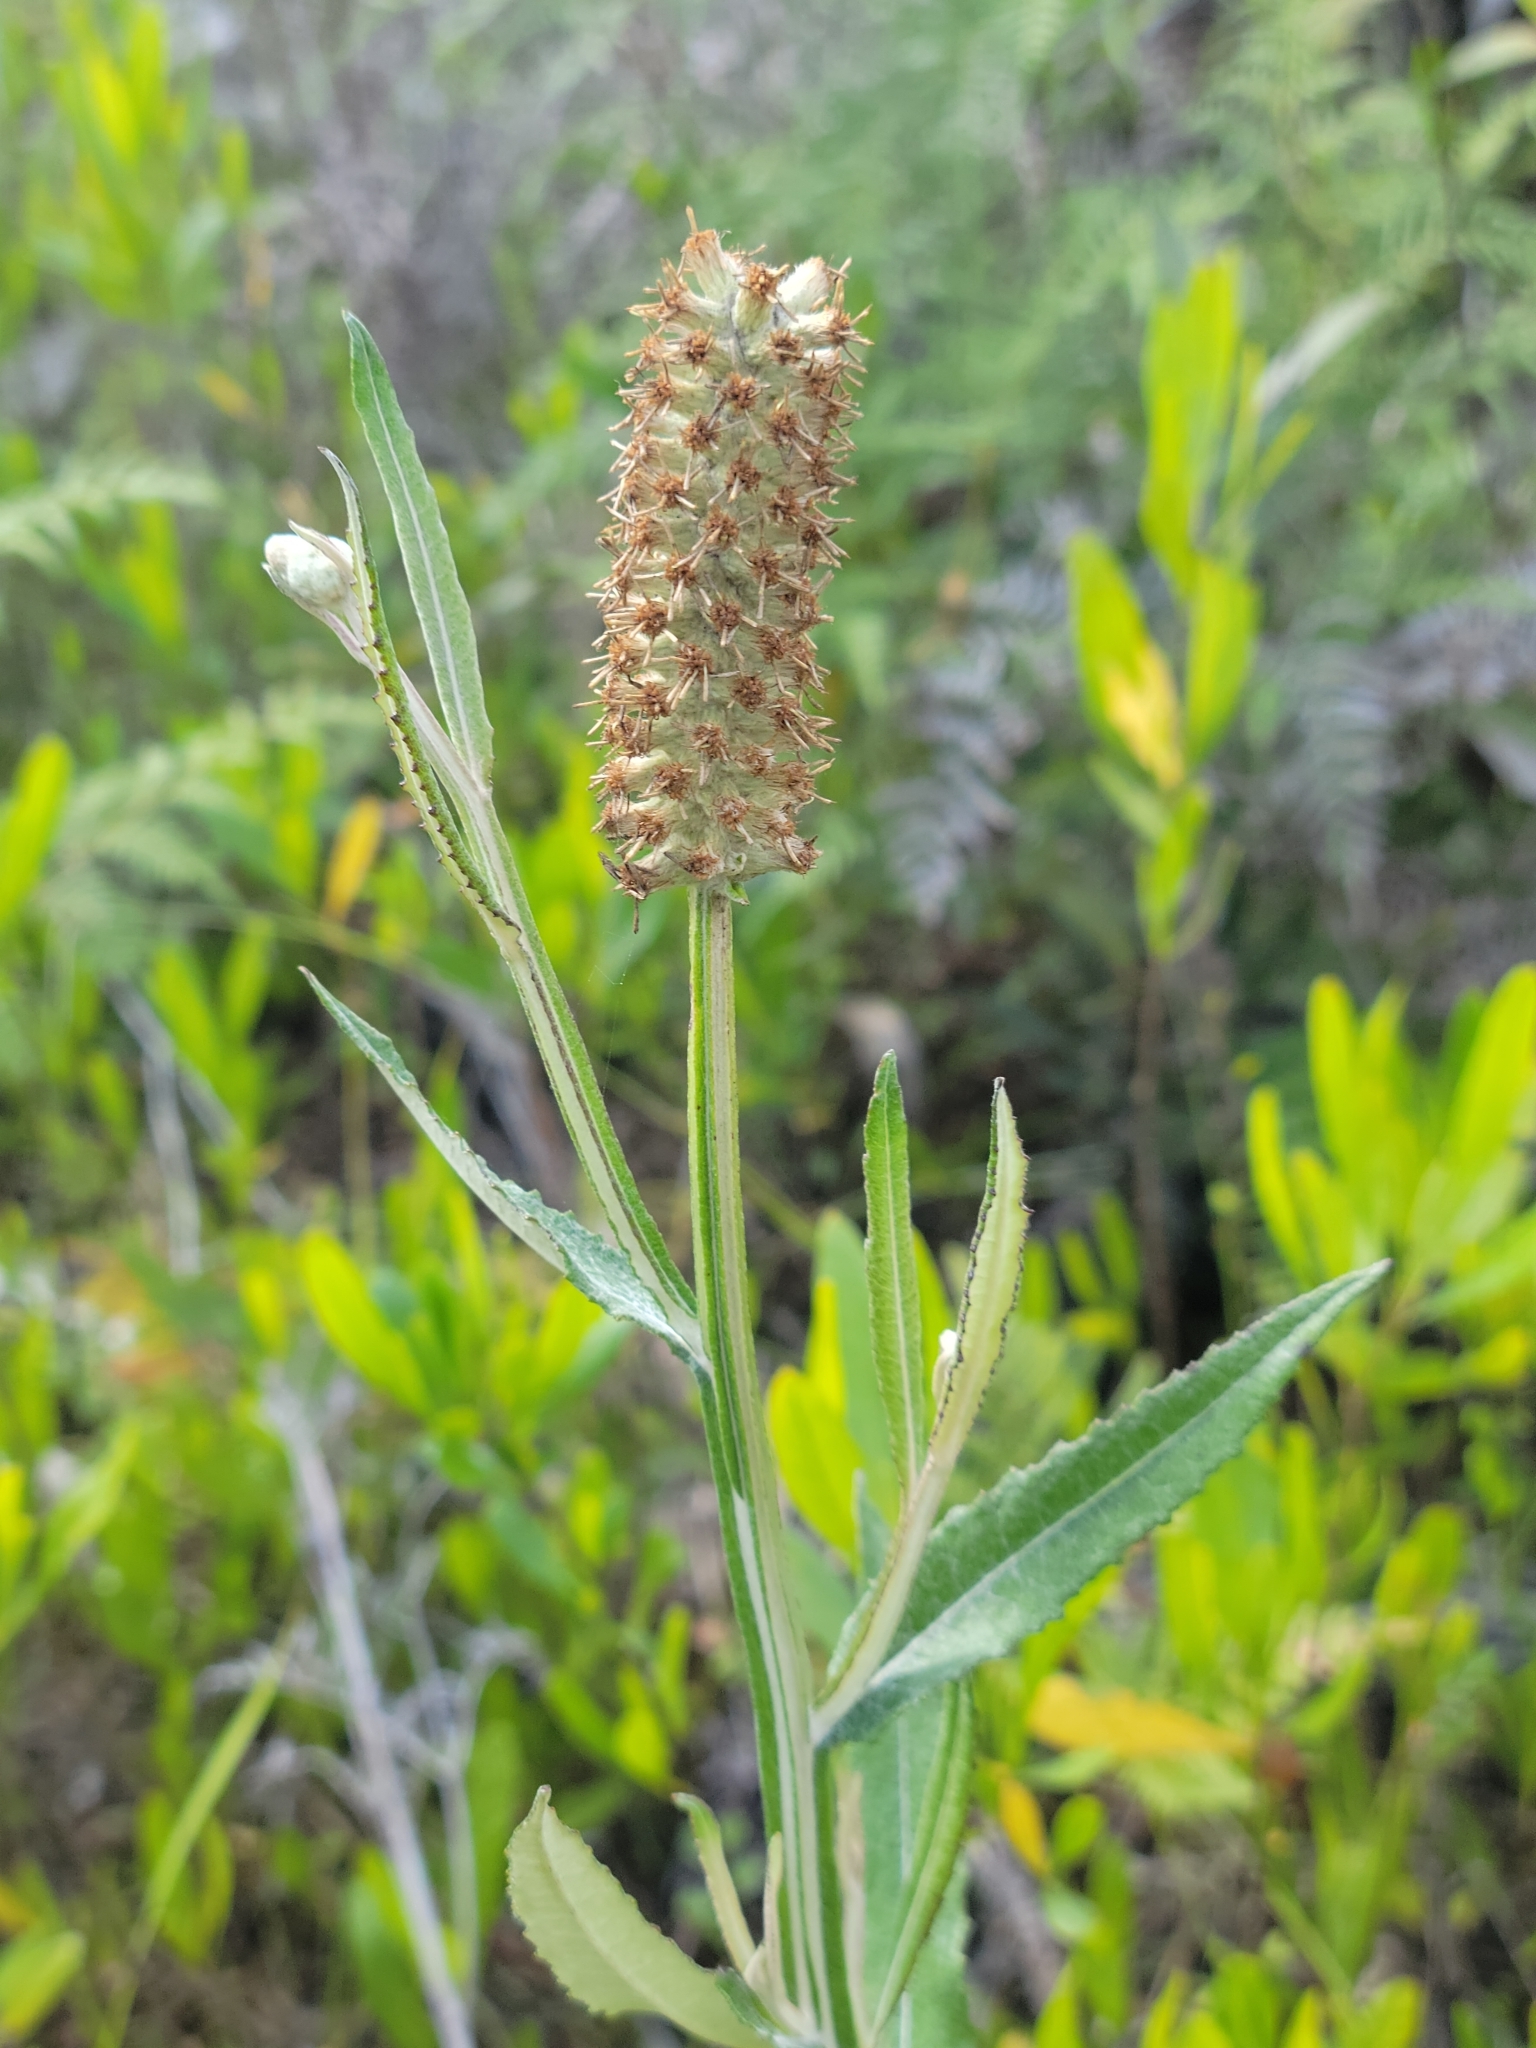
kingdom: Plantae
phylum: Tracheophyta
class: Magnoliopsida
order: Asterales
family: Asteraceae
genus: Pterocaulon
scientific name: Pterocaulon pycnostachyum
